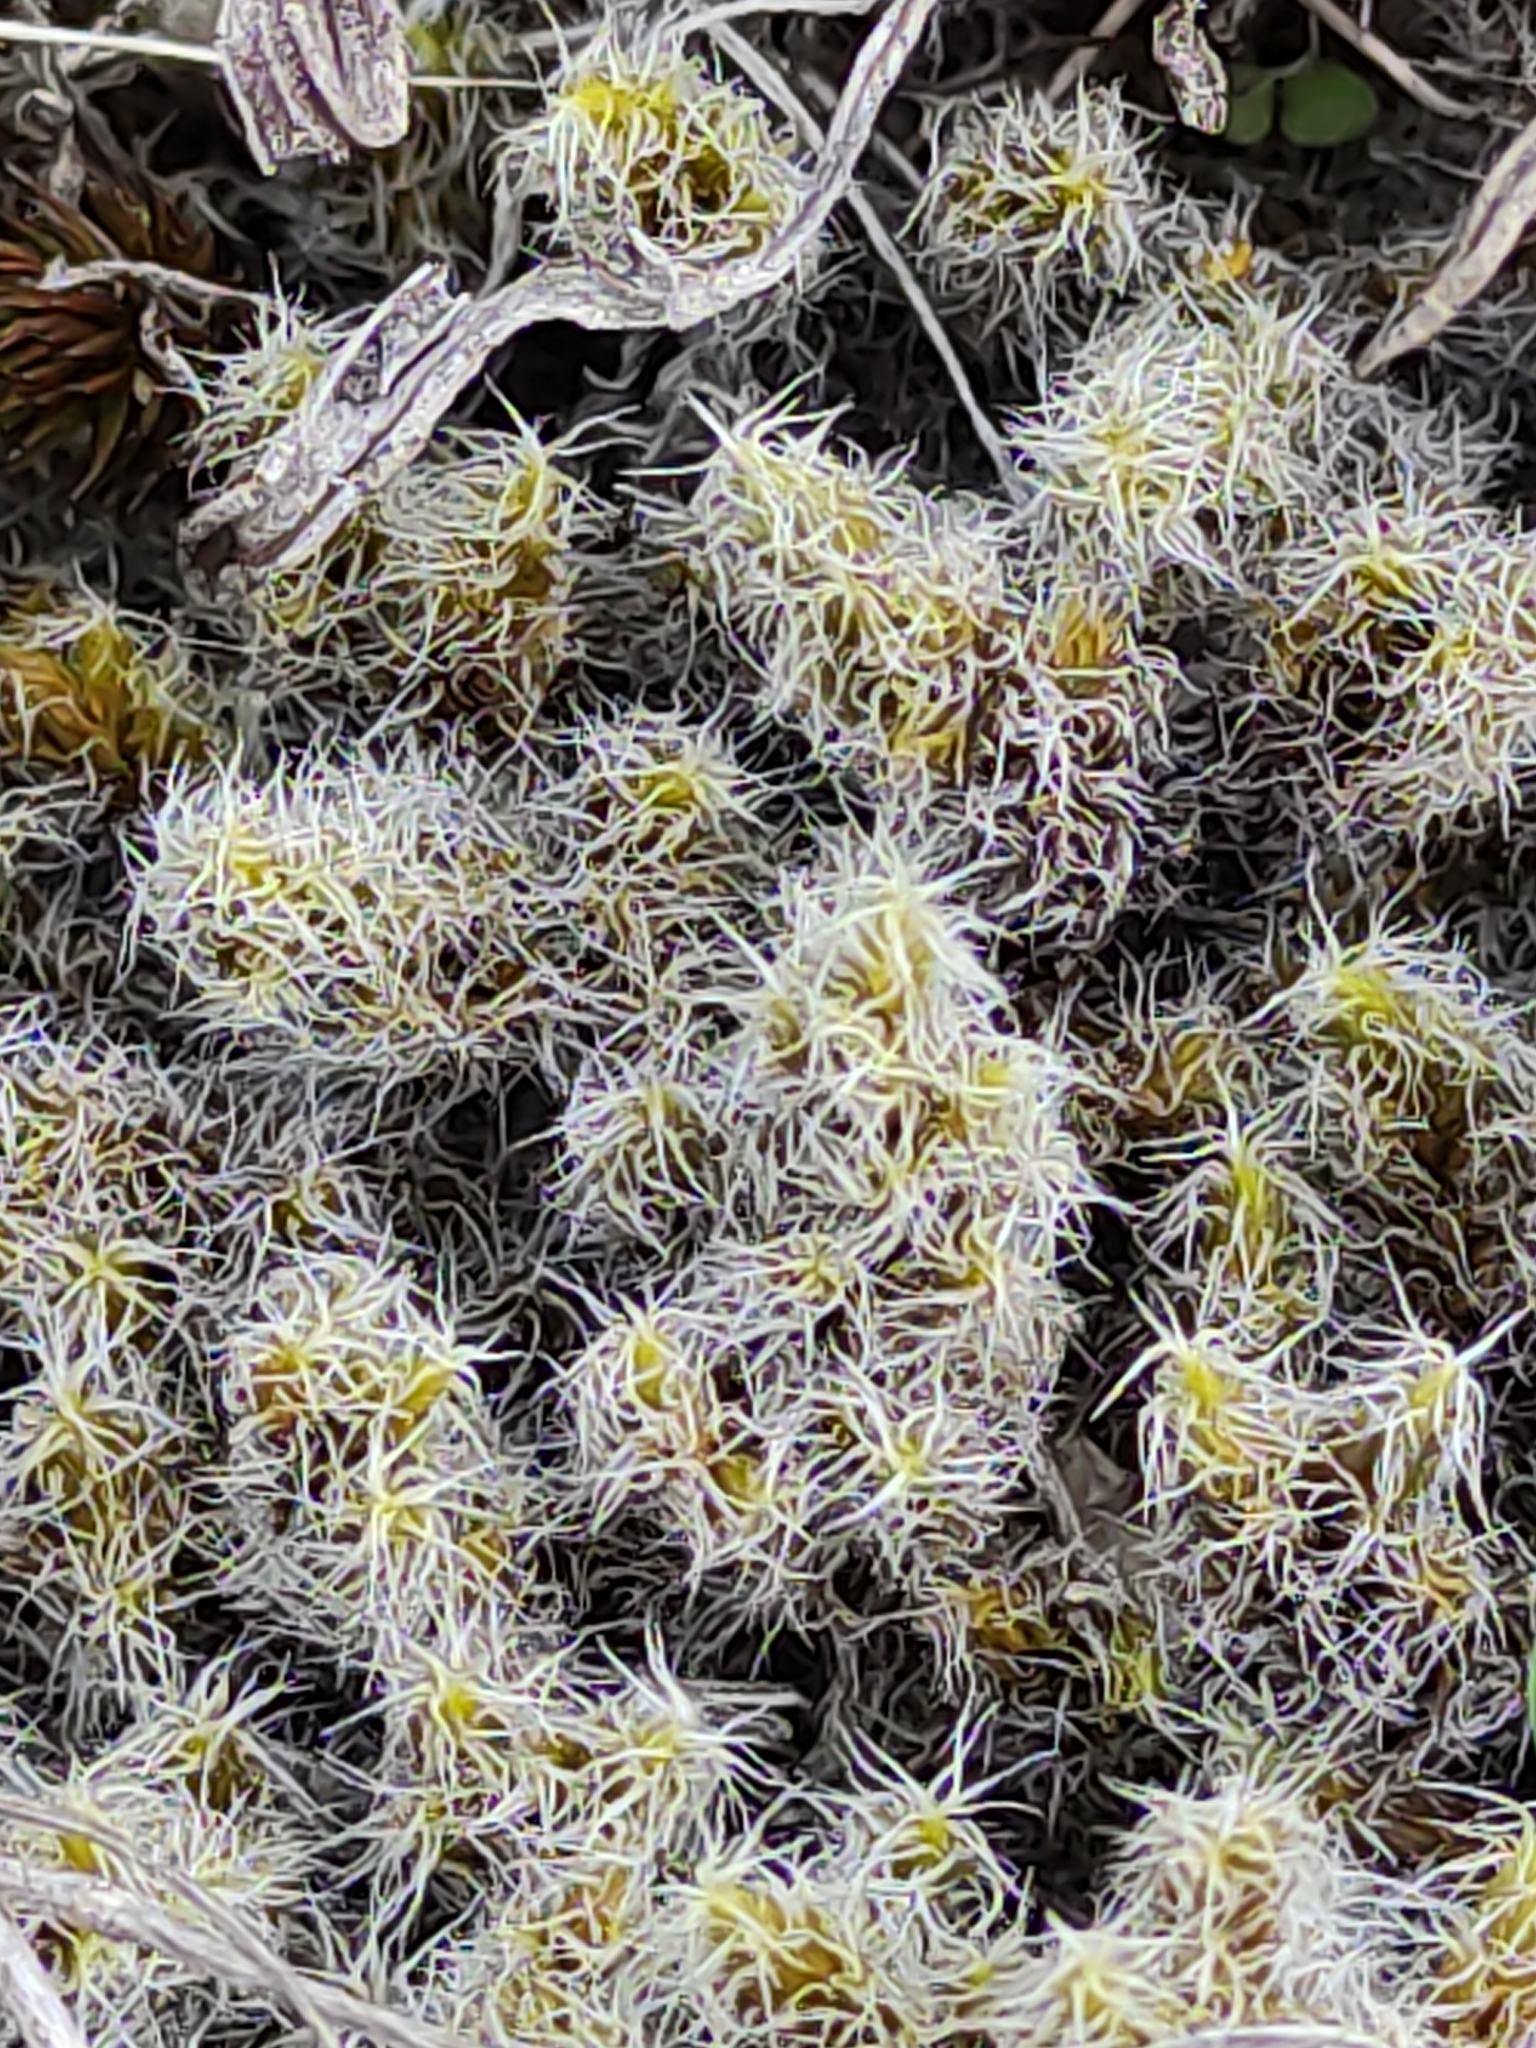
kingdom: Plantae
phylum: Bryophyta
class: Bryopsida
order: Grimmiales
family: Grimmiaceae
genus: Racomitrium
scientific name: Racomitrium lanuginosum
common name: Hoary rock moss
